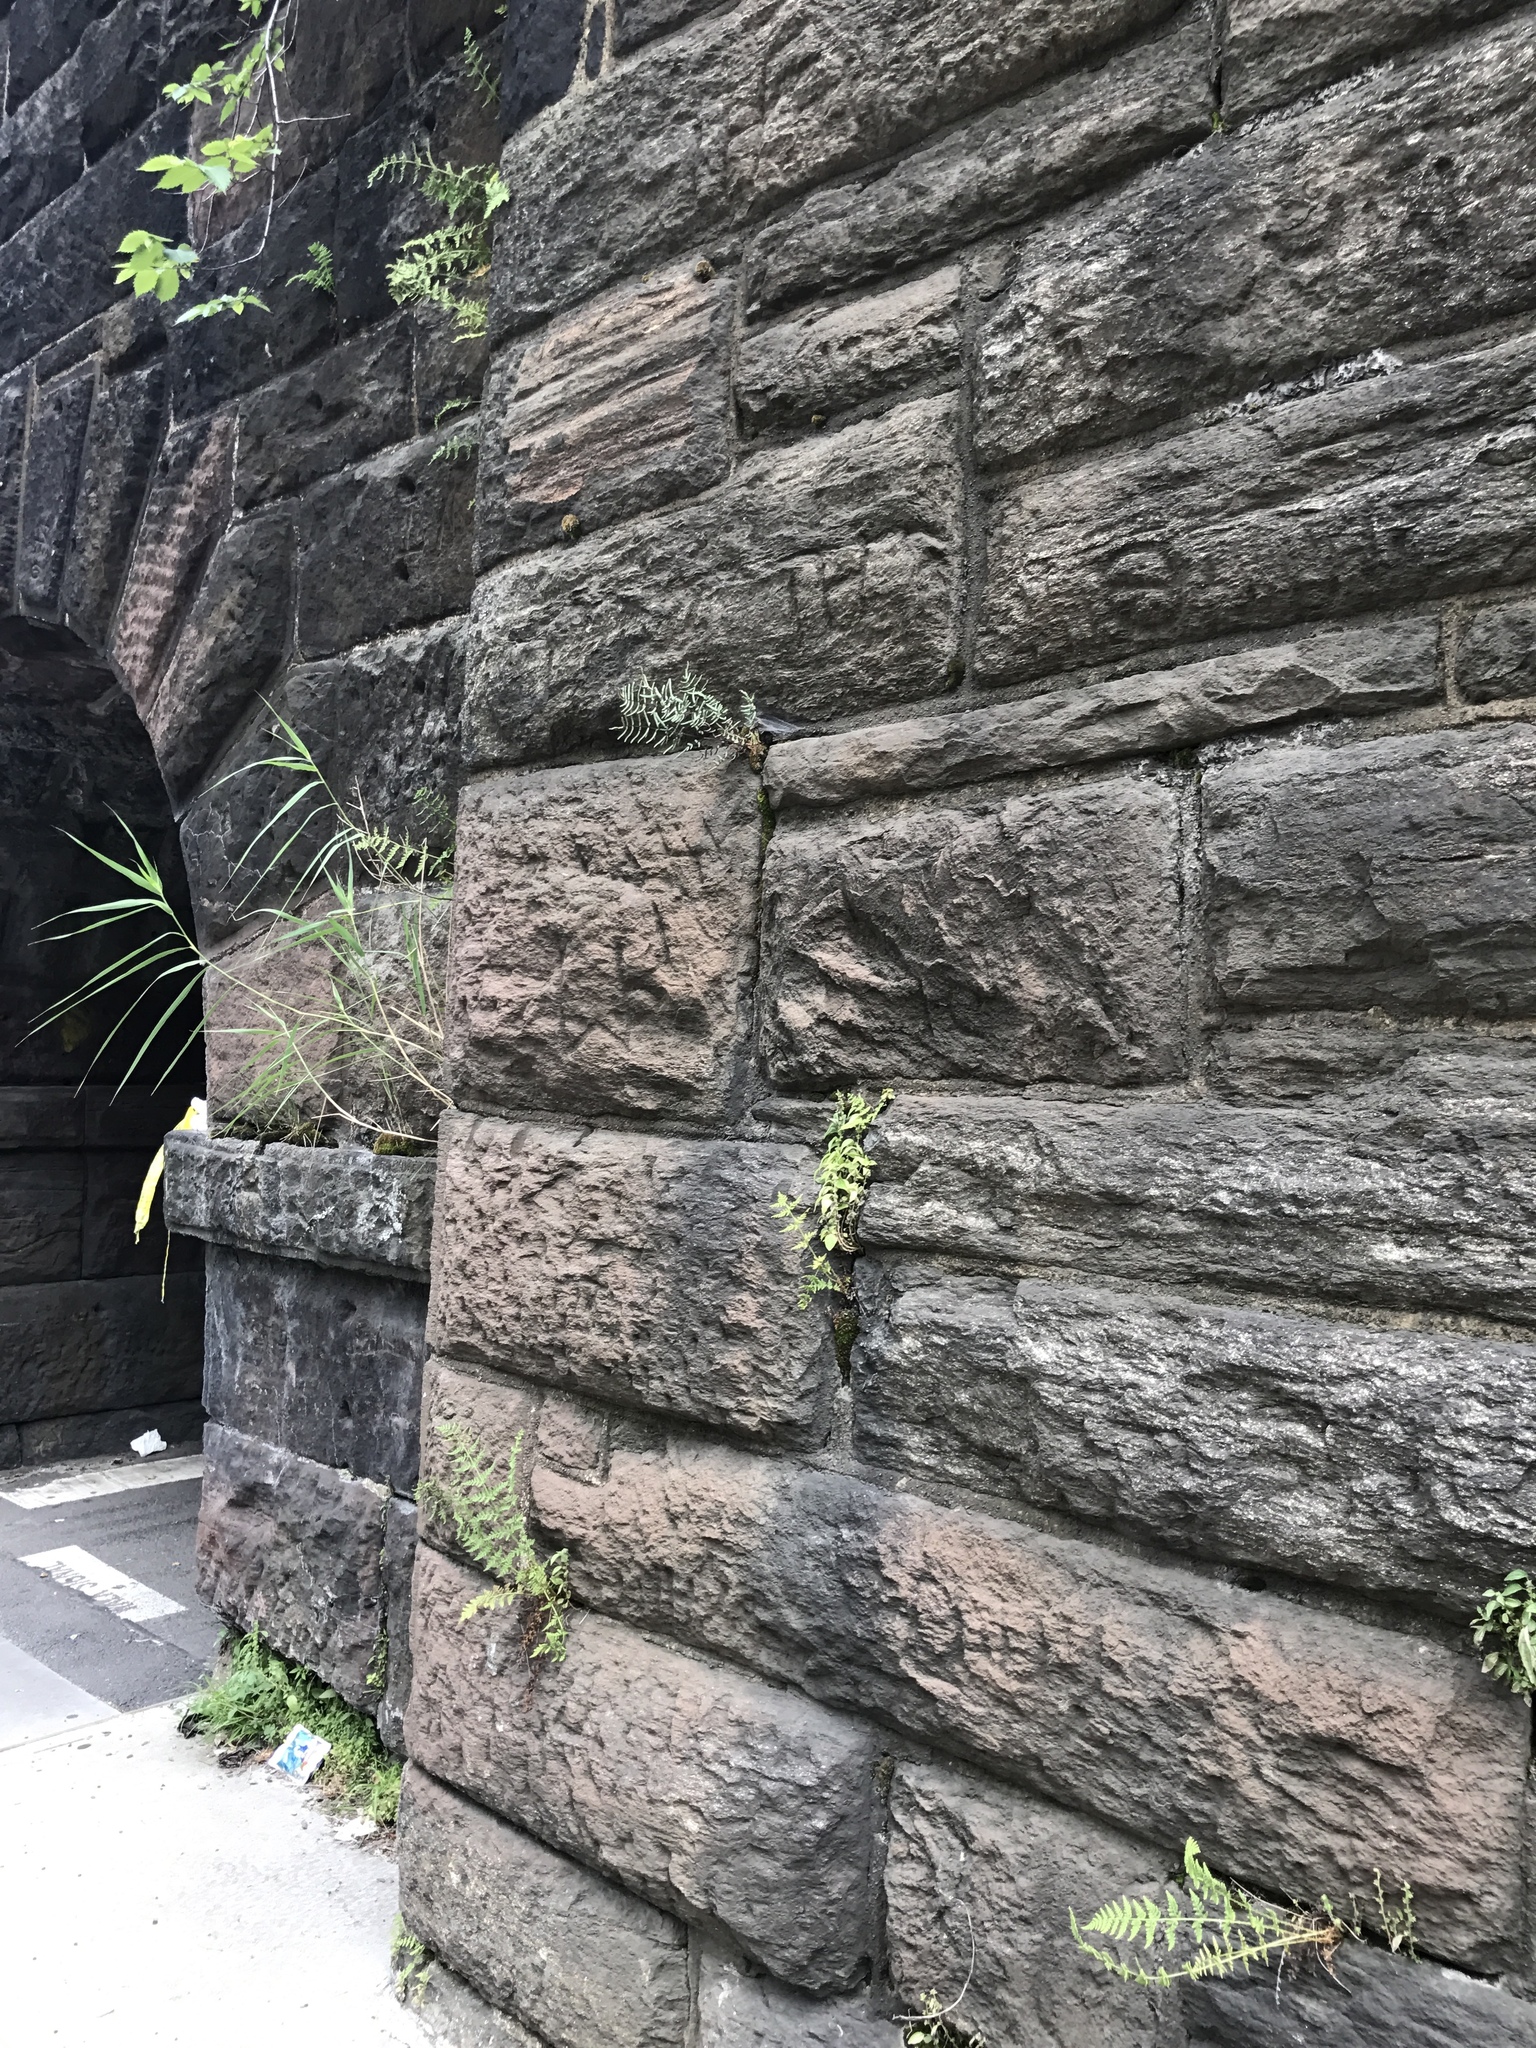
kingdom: Plantae
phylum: Tracheophyta
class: Polypodiopsida
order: Polypodiales
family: Pteridaceae
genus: Pellaea
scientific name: Pellaea atropurpurea
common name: Hairy cliffbrake
